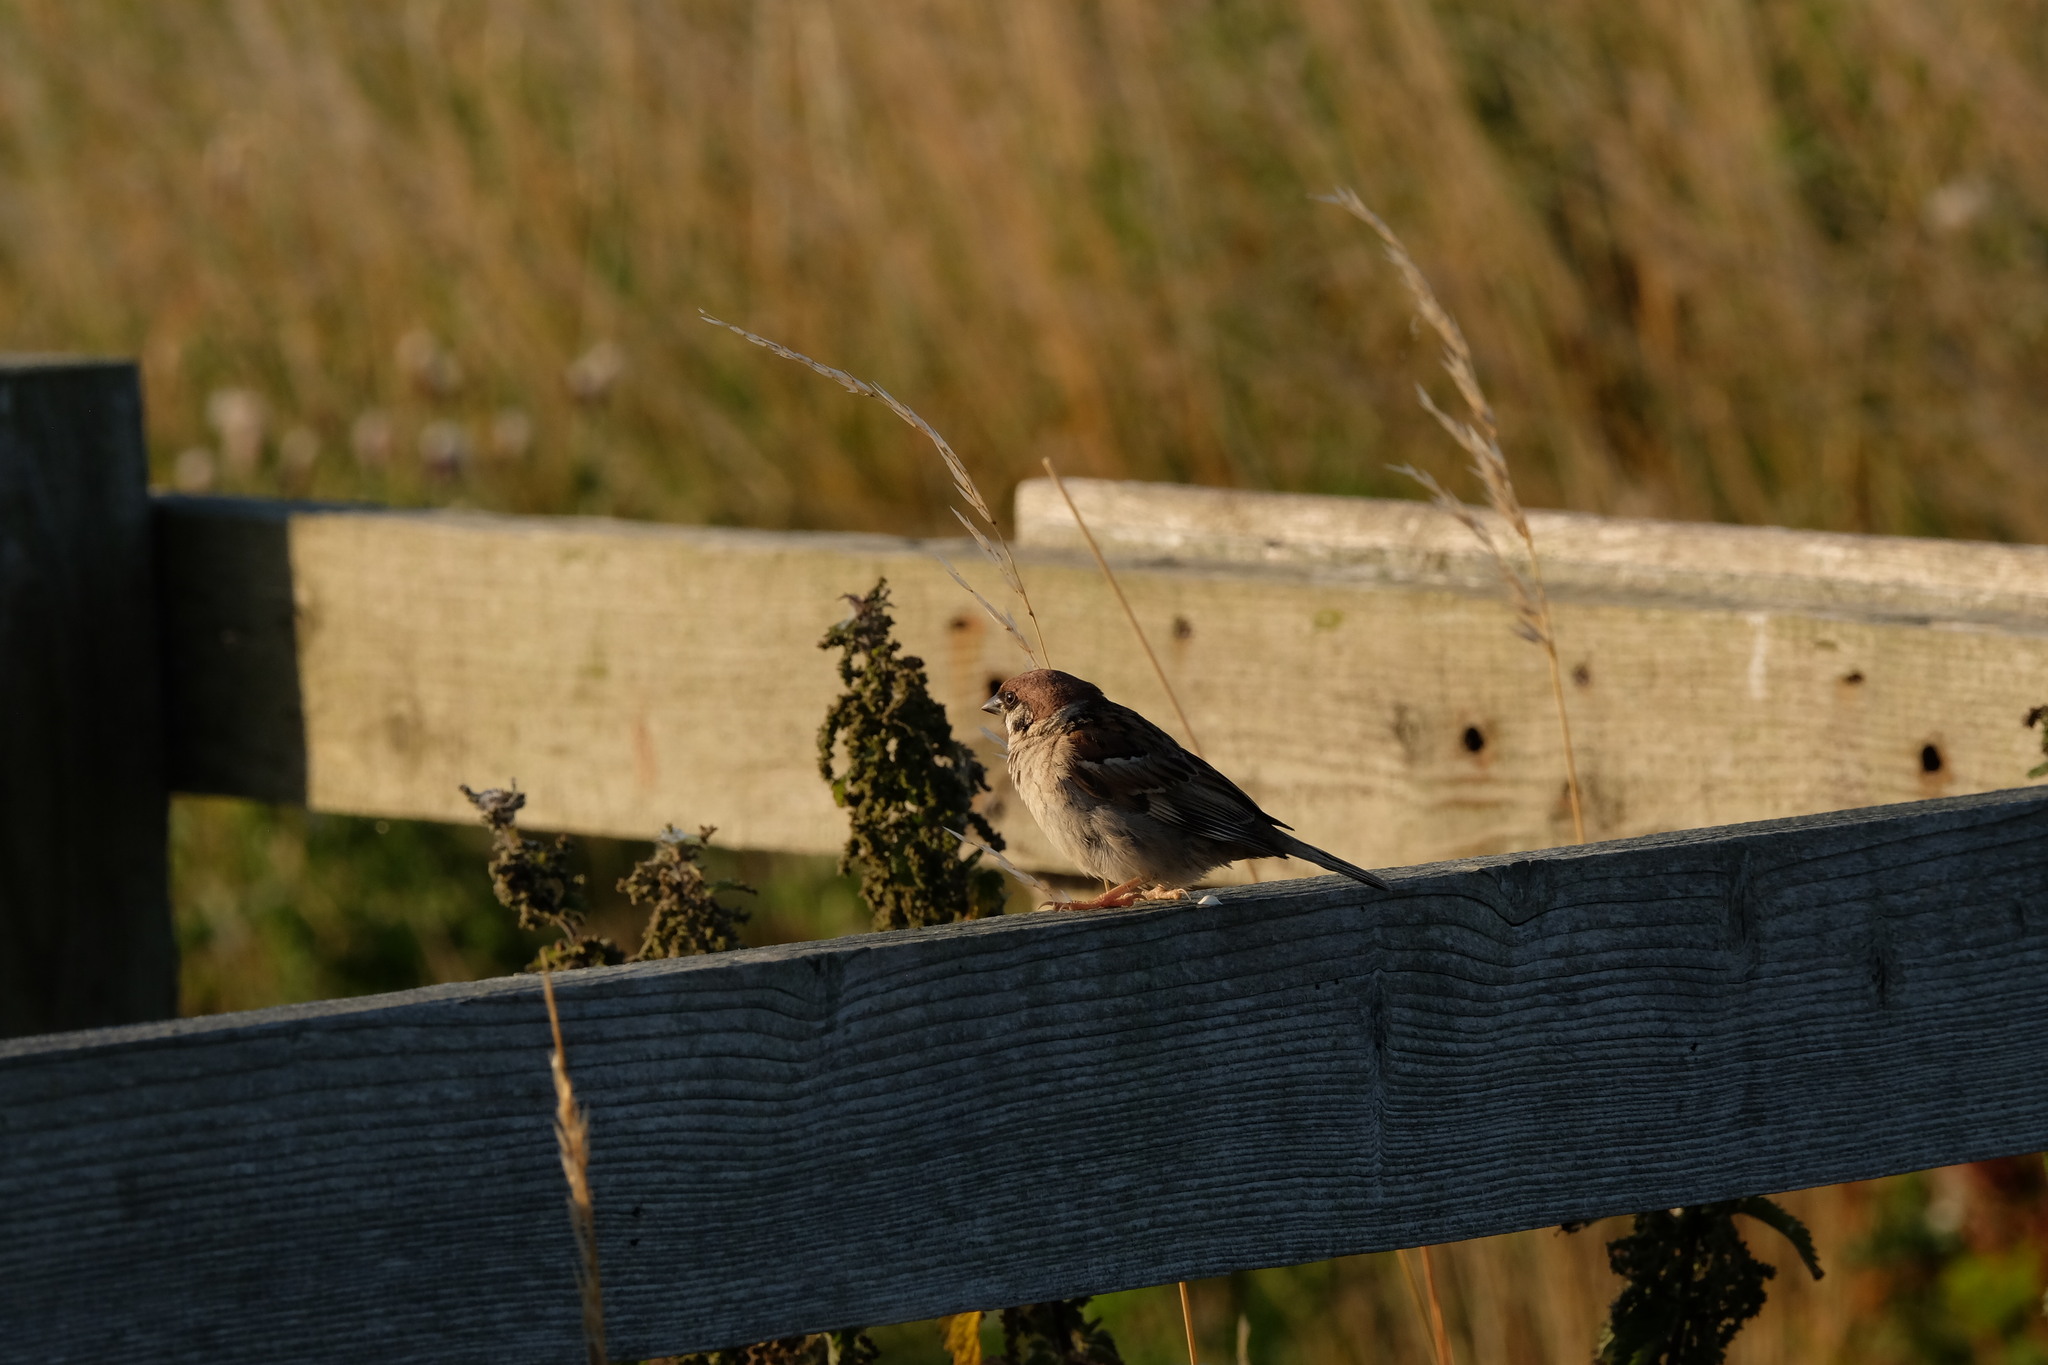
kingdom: Animalia
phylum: Chordata
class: Aves
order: Passeriformes
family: Passeridae
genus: Passer
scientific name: Passer montanus
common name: Eurasian tree sparrow
